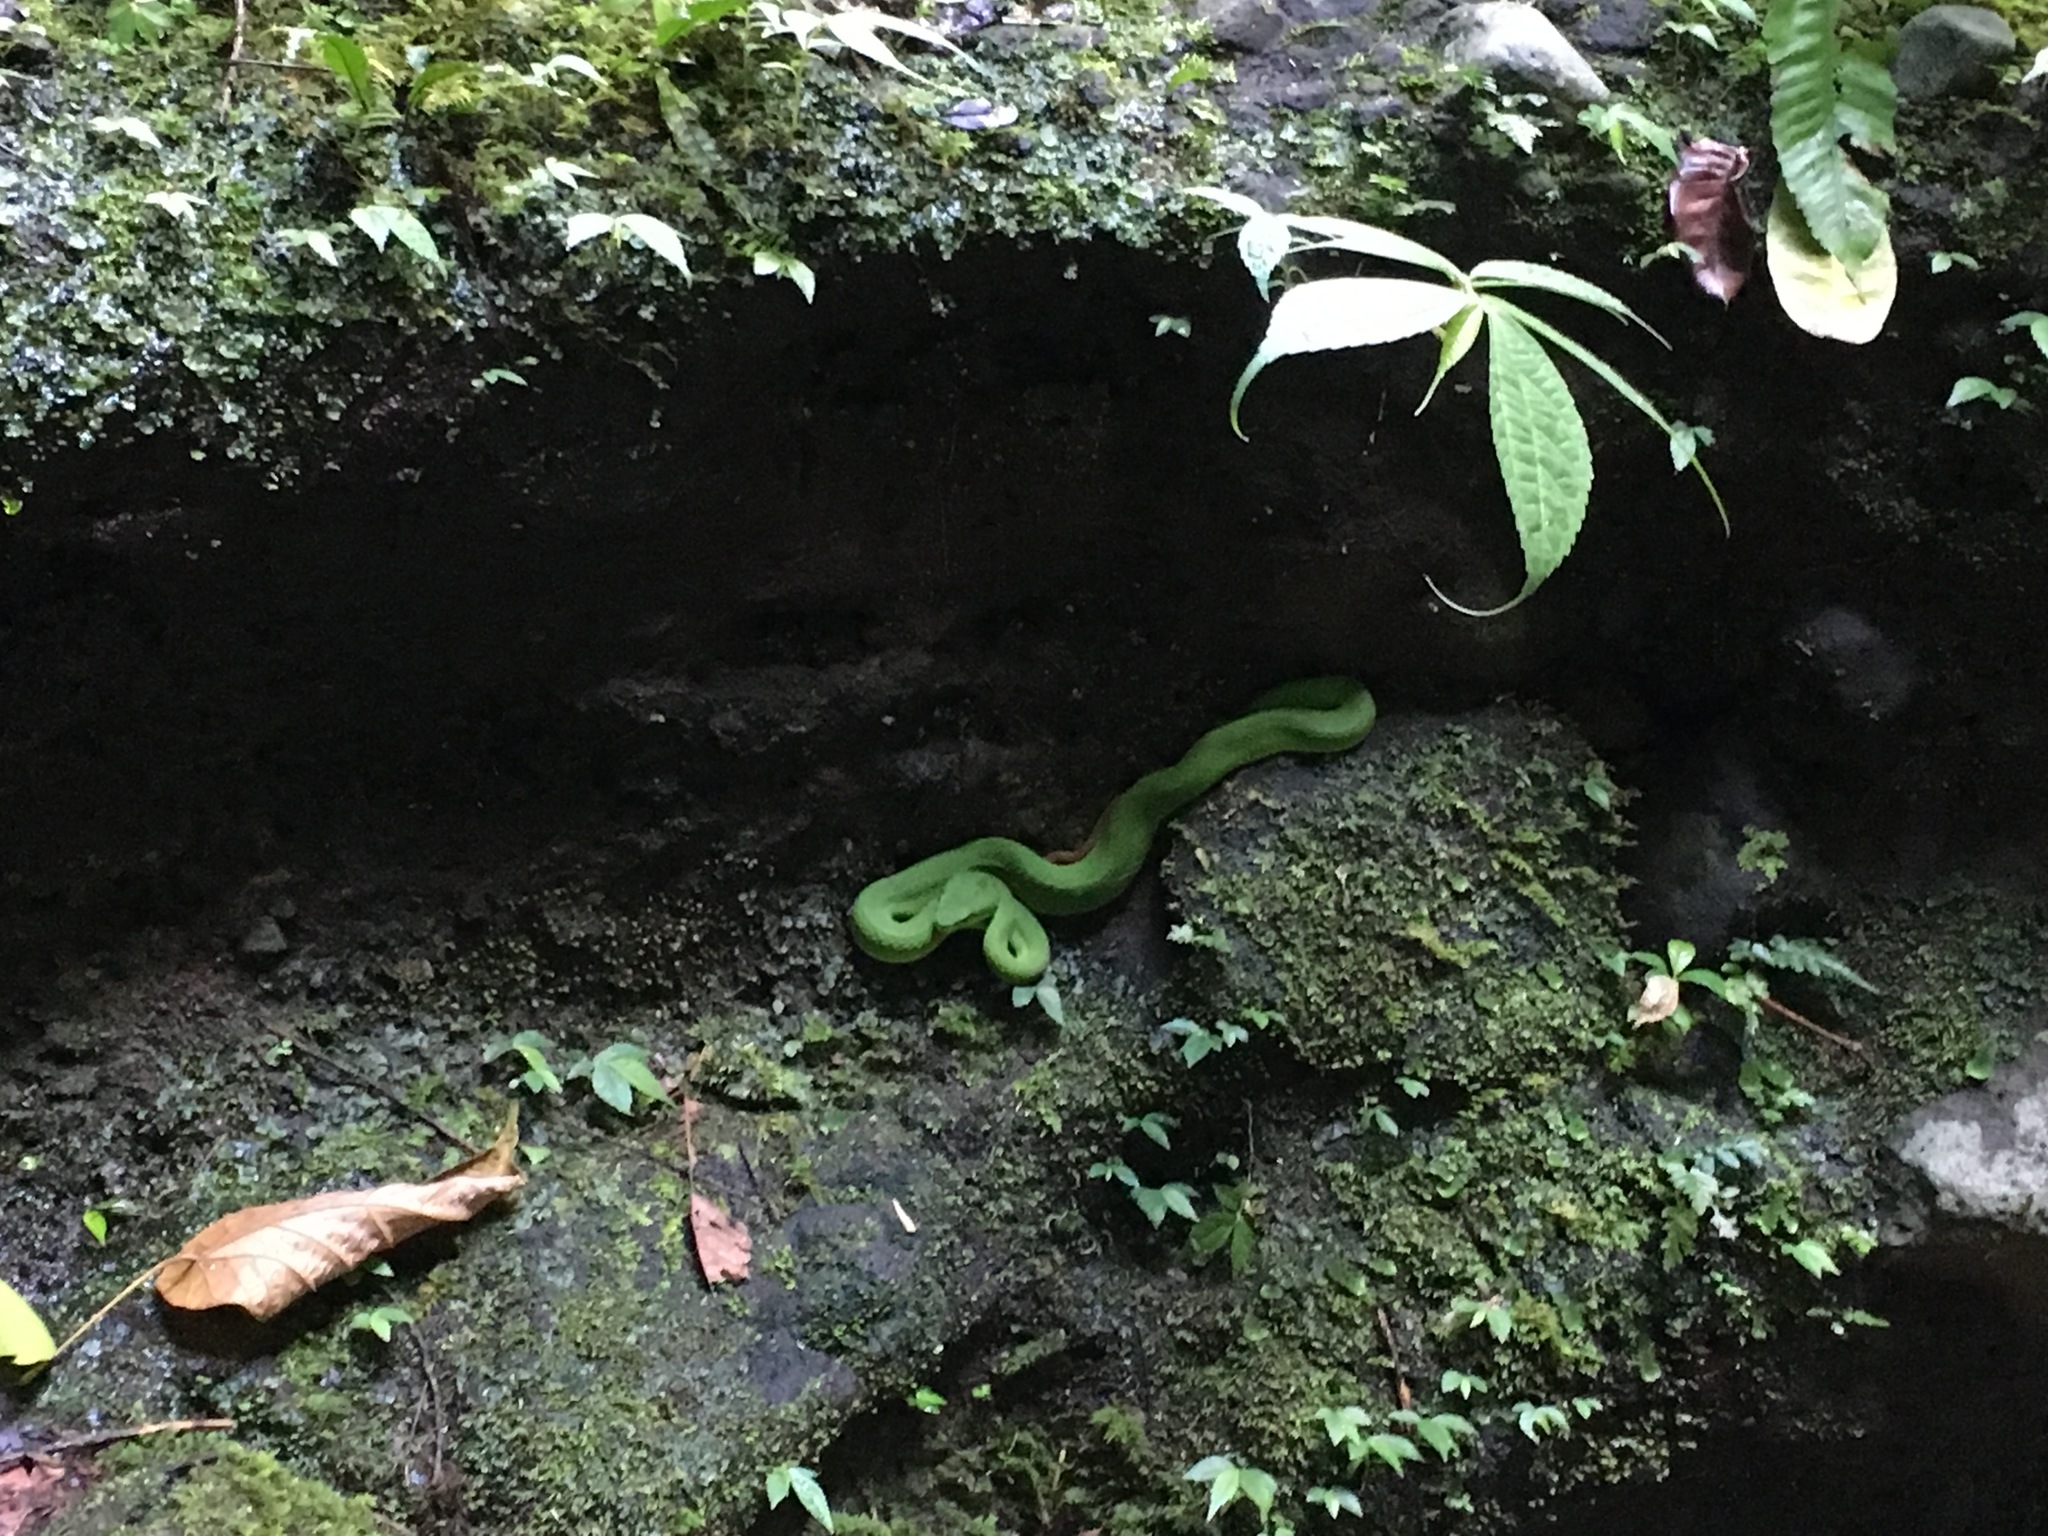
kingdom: Animalia
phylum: Chordata
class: Squamata
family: Viperidae
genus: Trimeresurus
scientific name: Trimeresurus insularis
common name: White-lipped island pitviper
